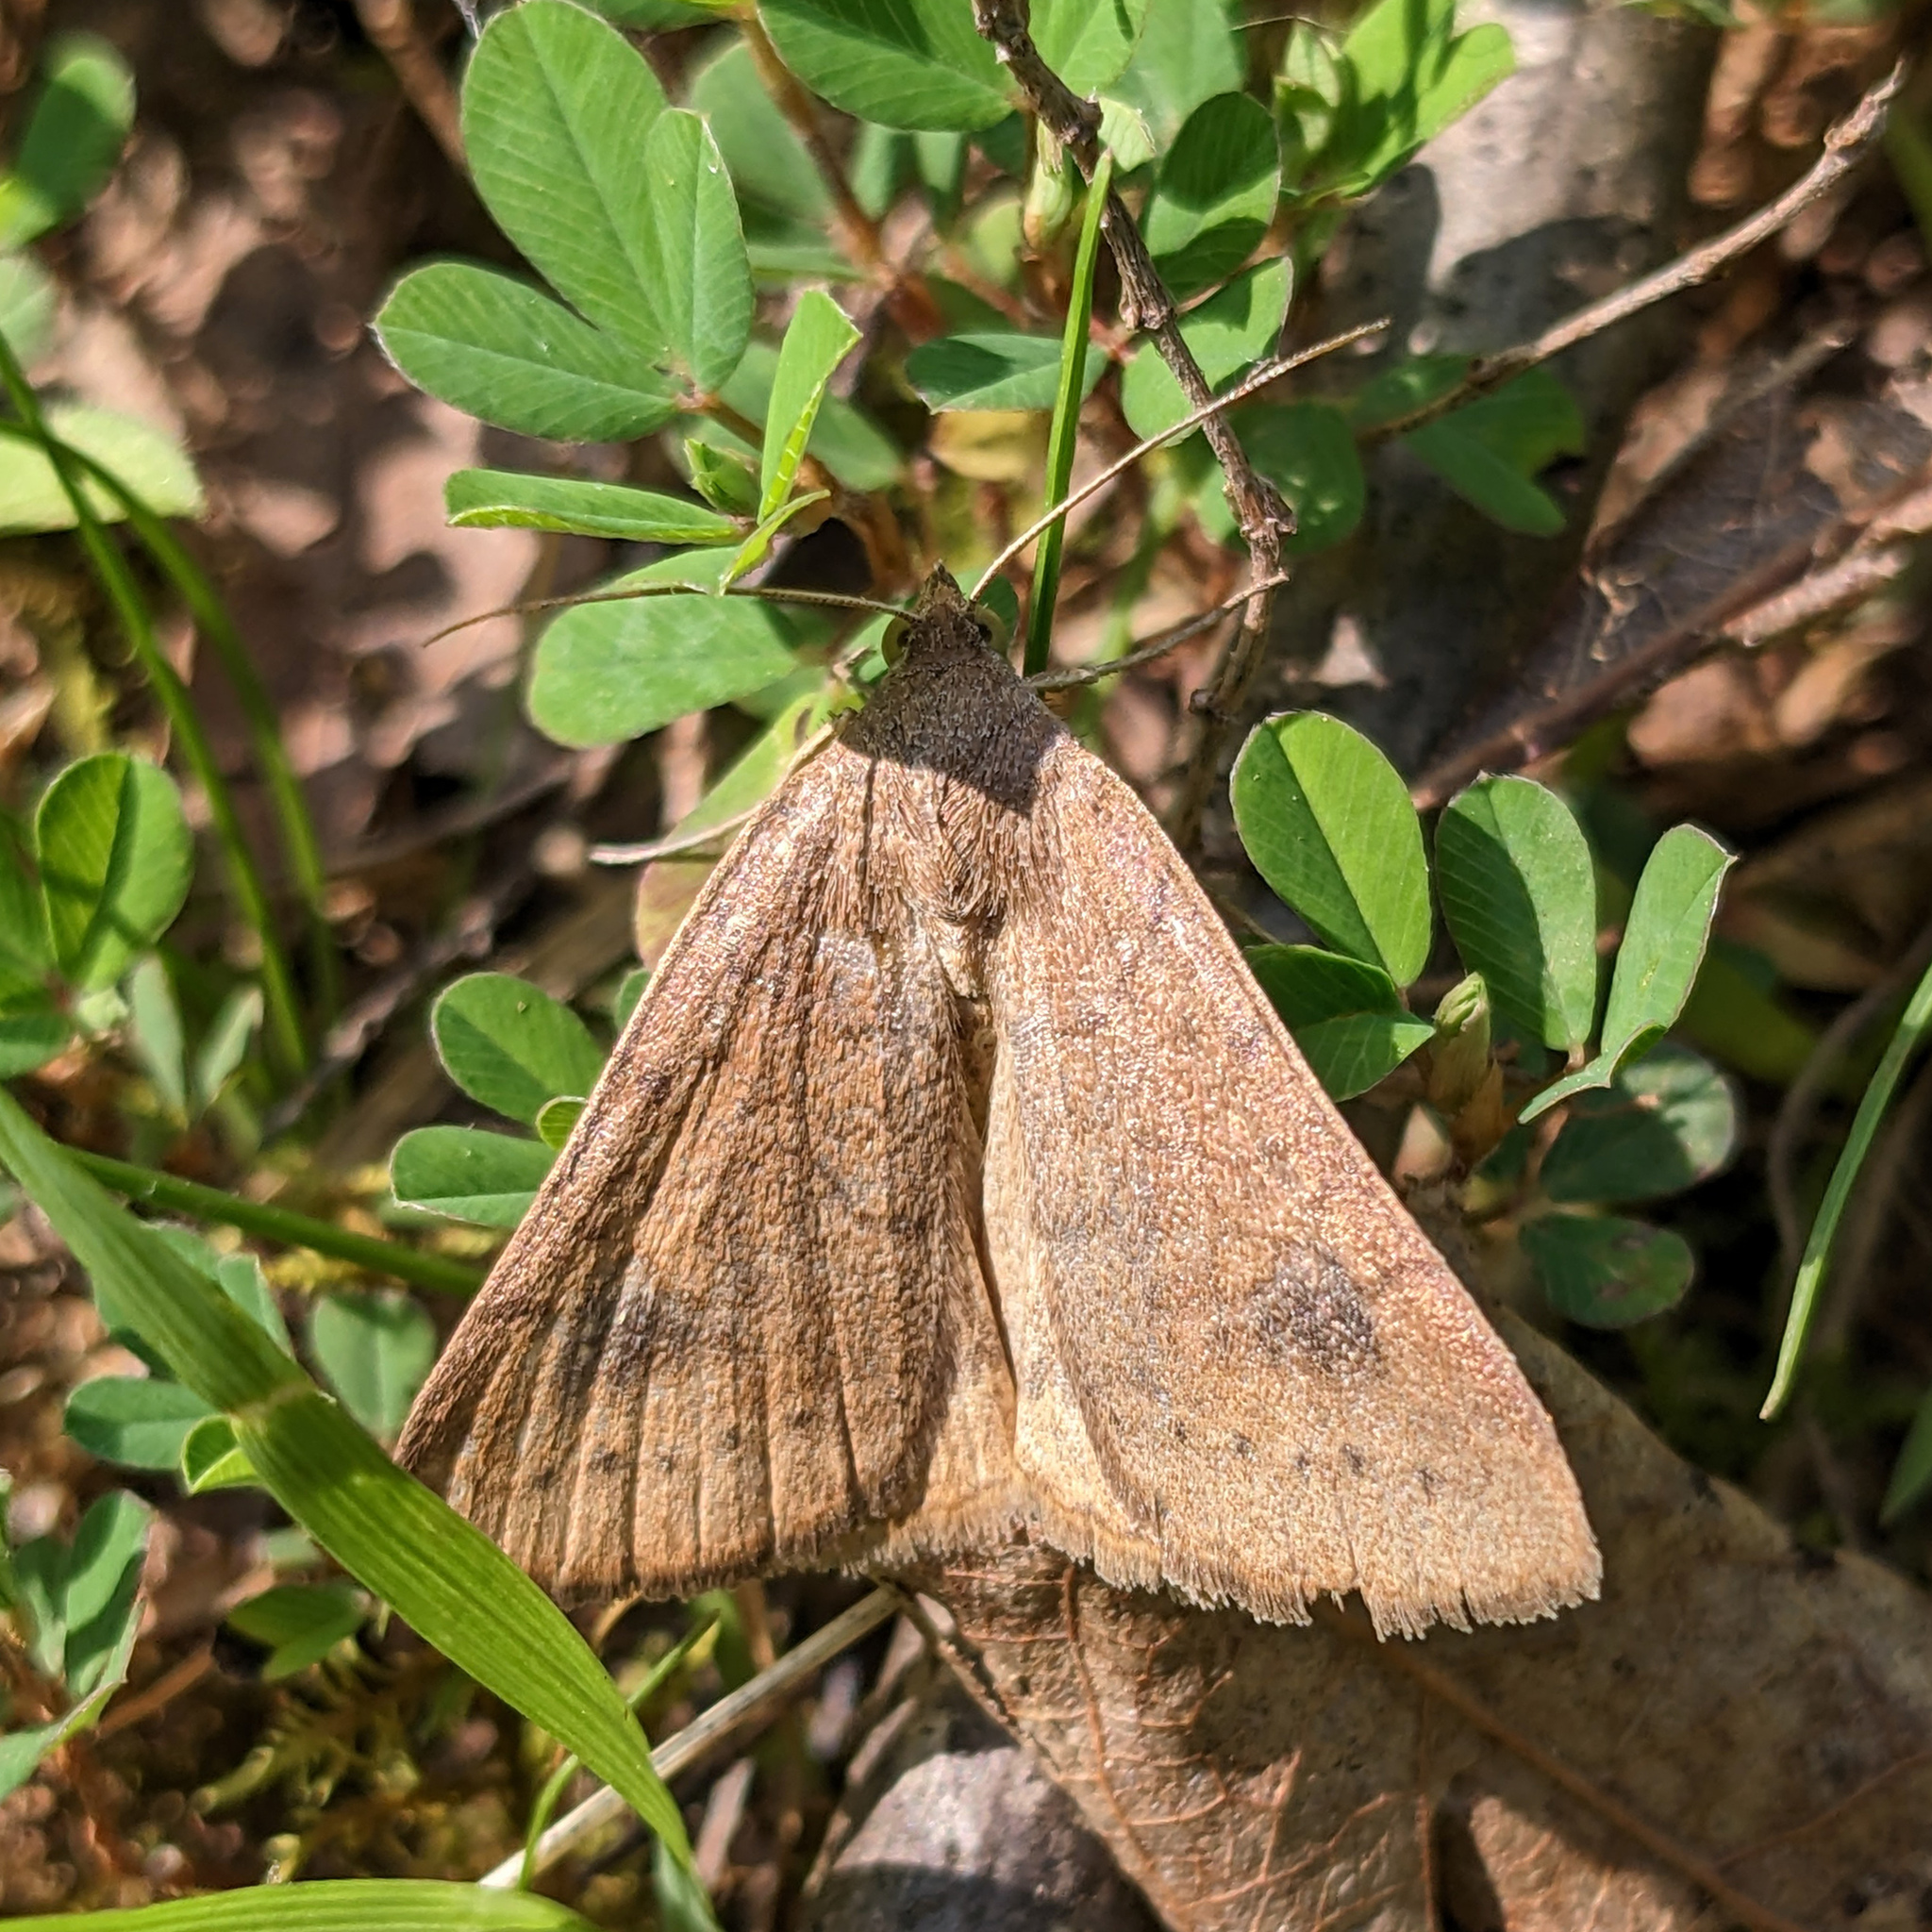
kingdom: Animalia
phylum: Arthropoda
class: Insecta
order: Lepidoptera
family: Erebidae
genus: Caenurgia
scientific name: Caenurgia chloropha
